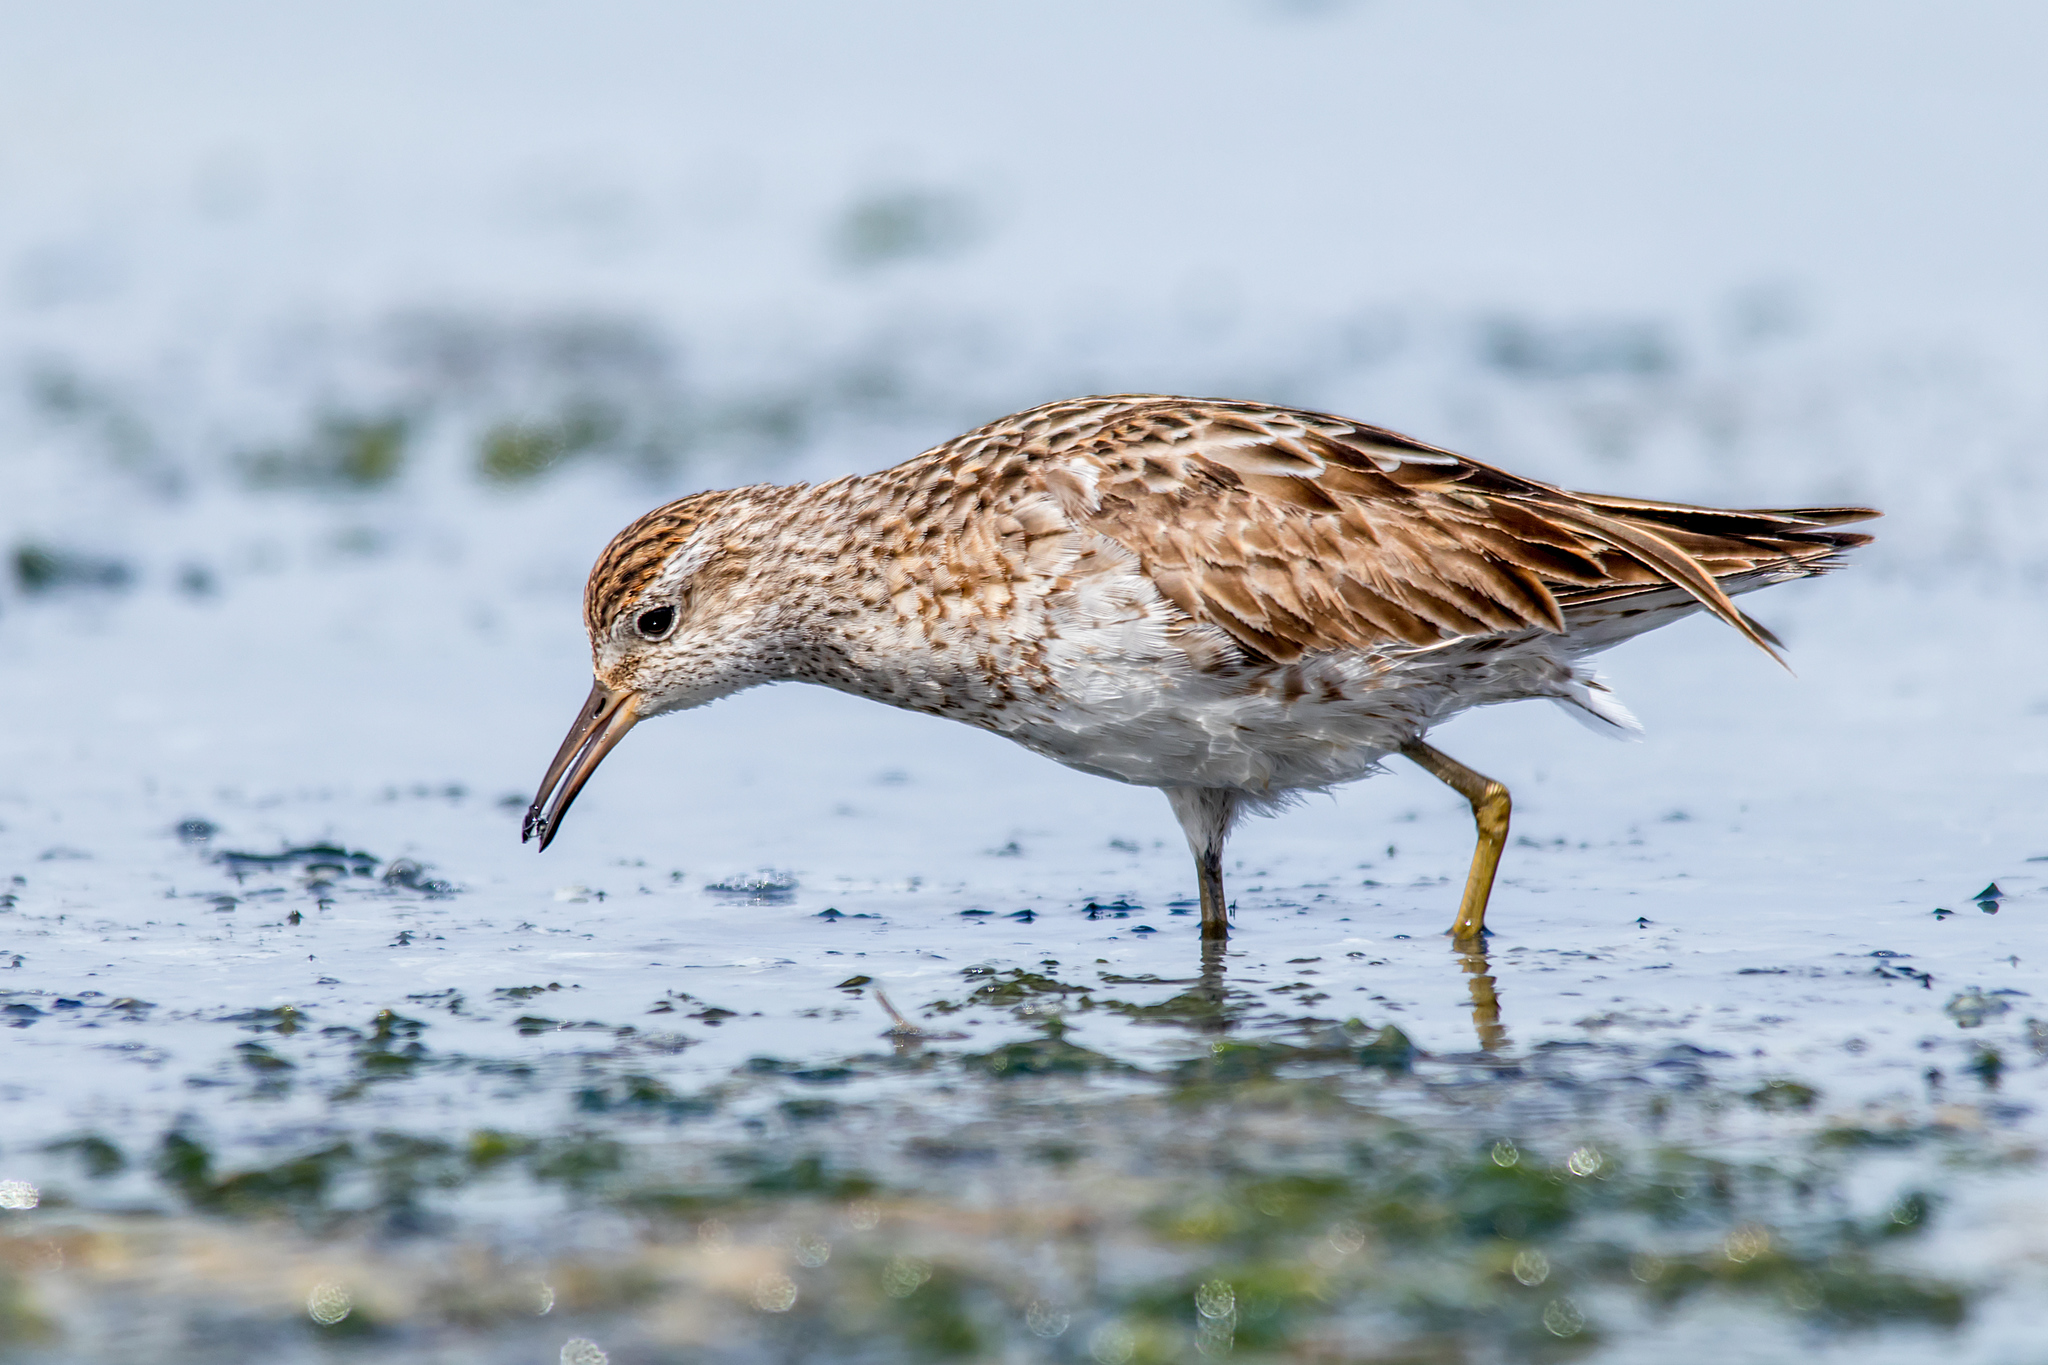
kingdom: Animalia
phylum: Chordata
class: Aves
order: Charadriiformes
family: Scolopacidae
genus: Calidris
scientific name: Calidris acuminata
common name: Sharp-tailed sandpiper
